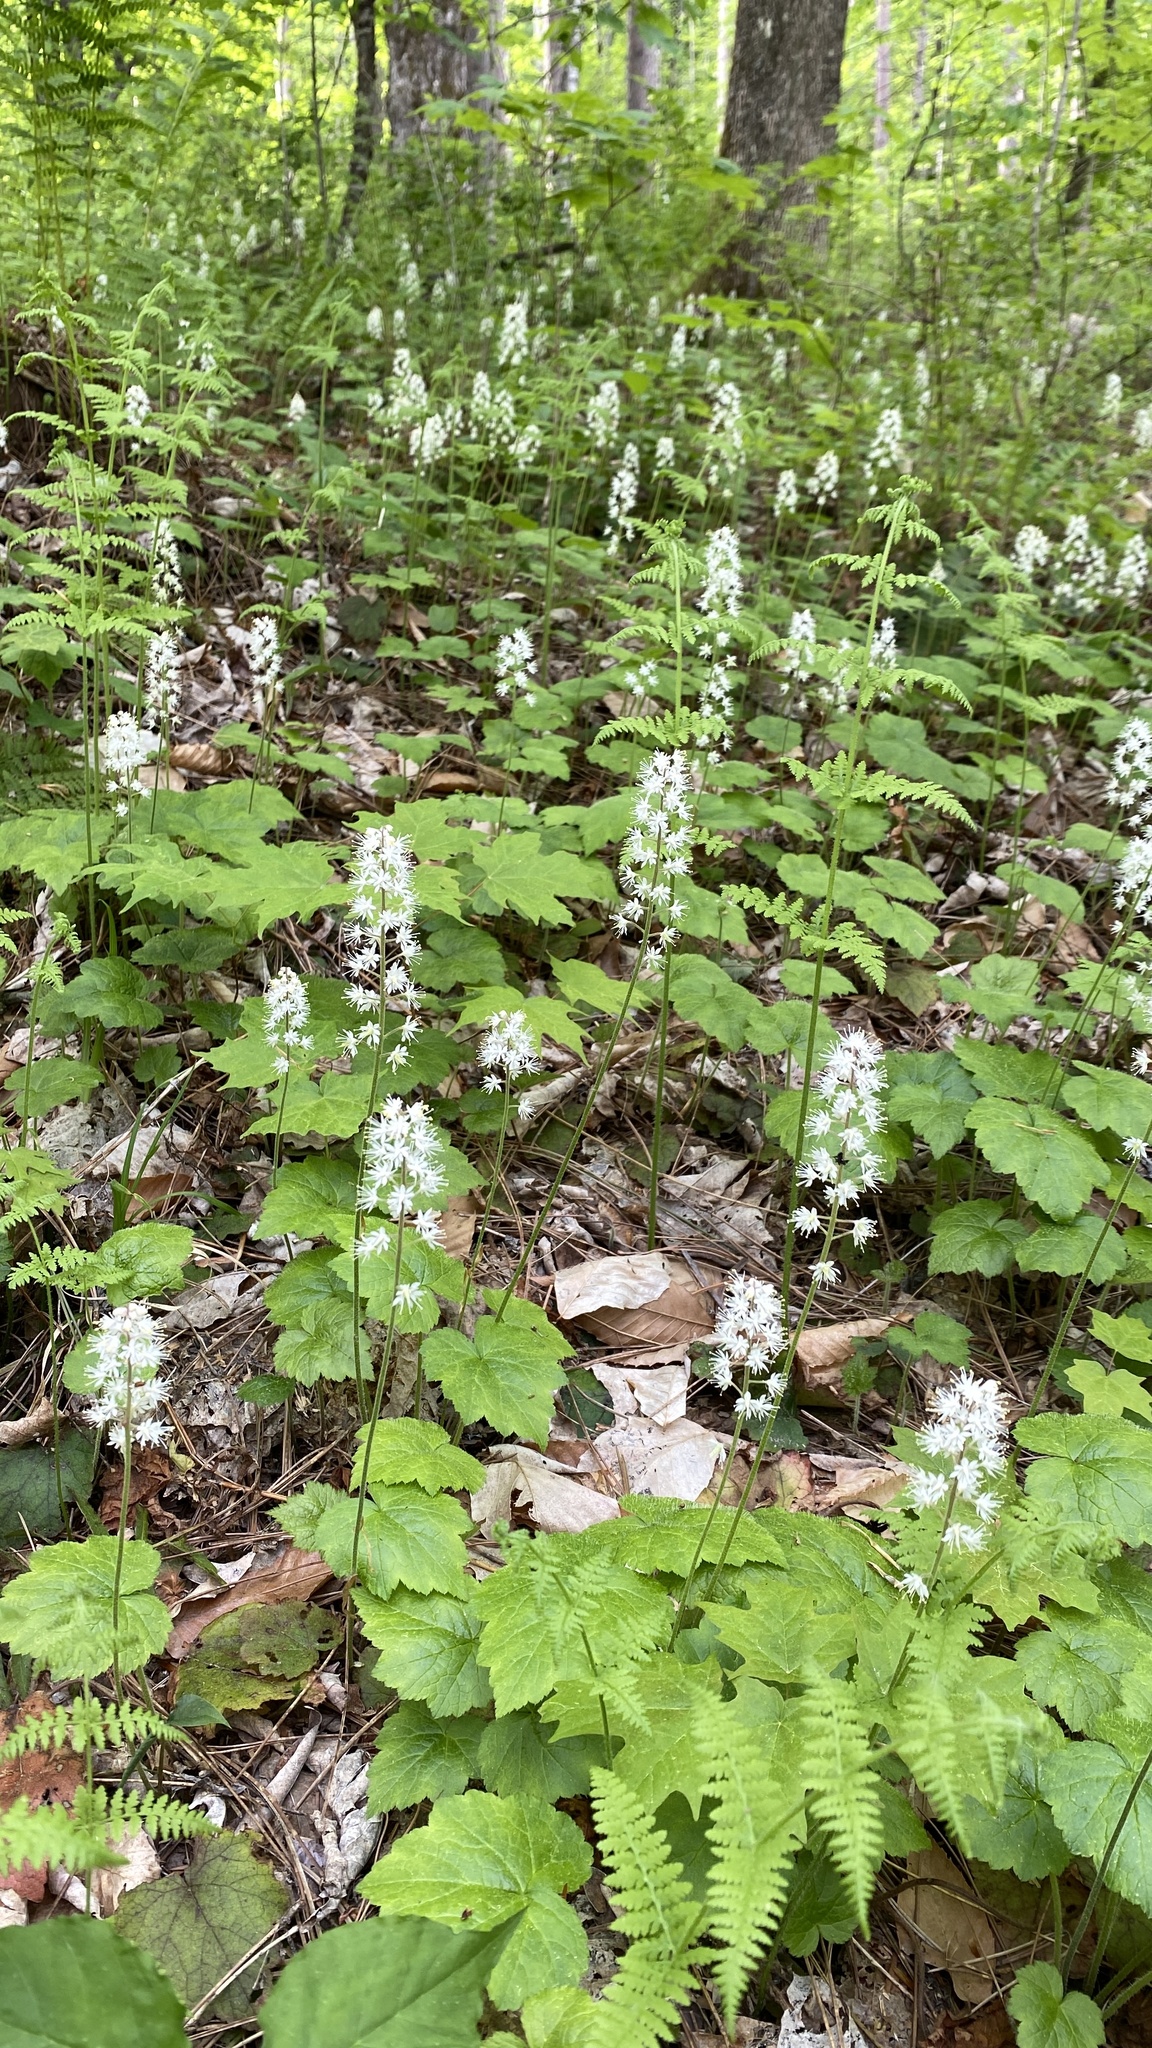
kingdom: Plantae
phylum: Tracheophyta
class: Magnoliopsida
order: Saxifragales
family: Saxifragaceae
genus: Tiarella
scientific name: Tiarella stolonifera
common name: Stoloniferous foamflower
